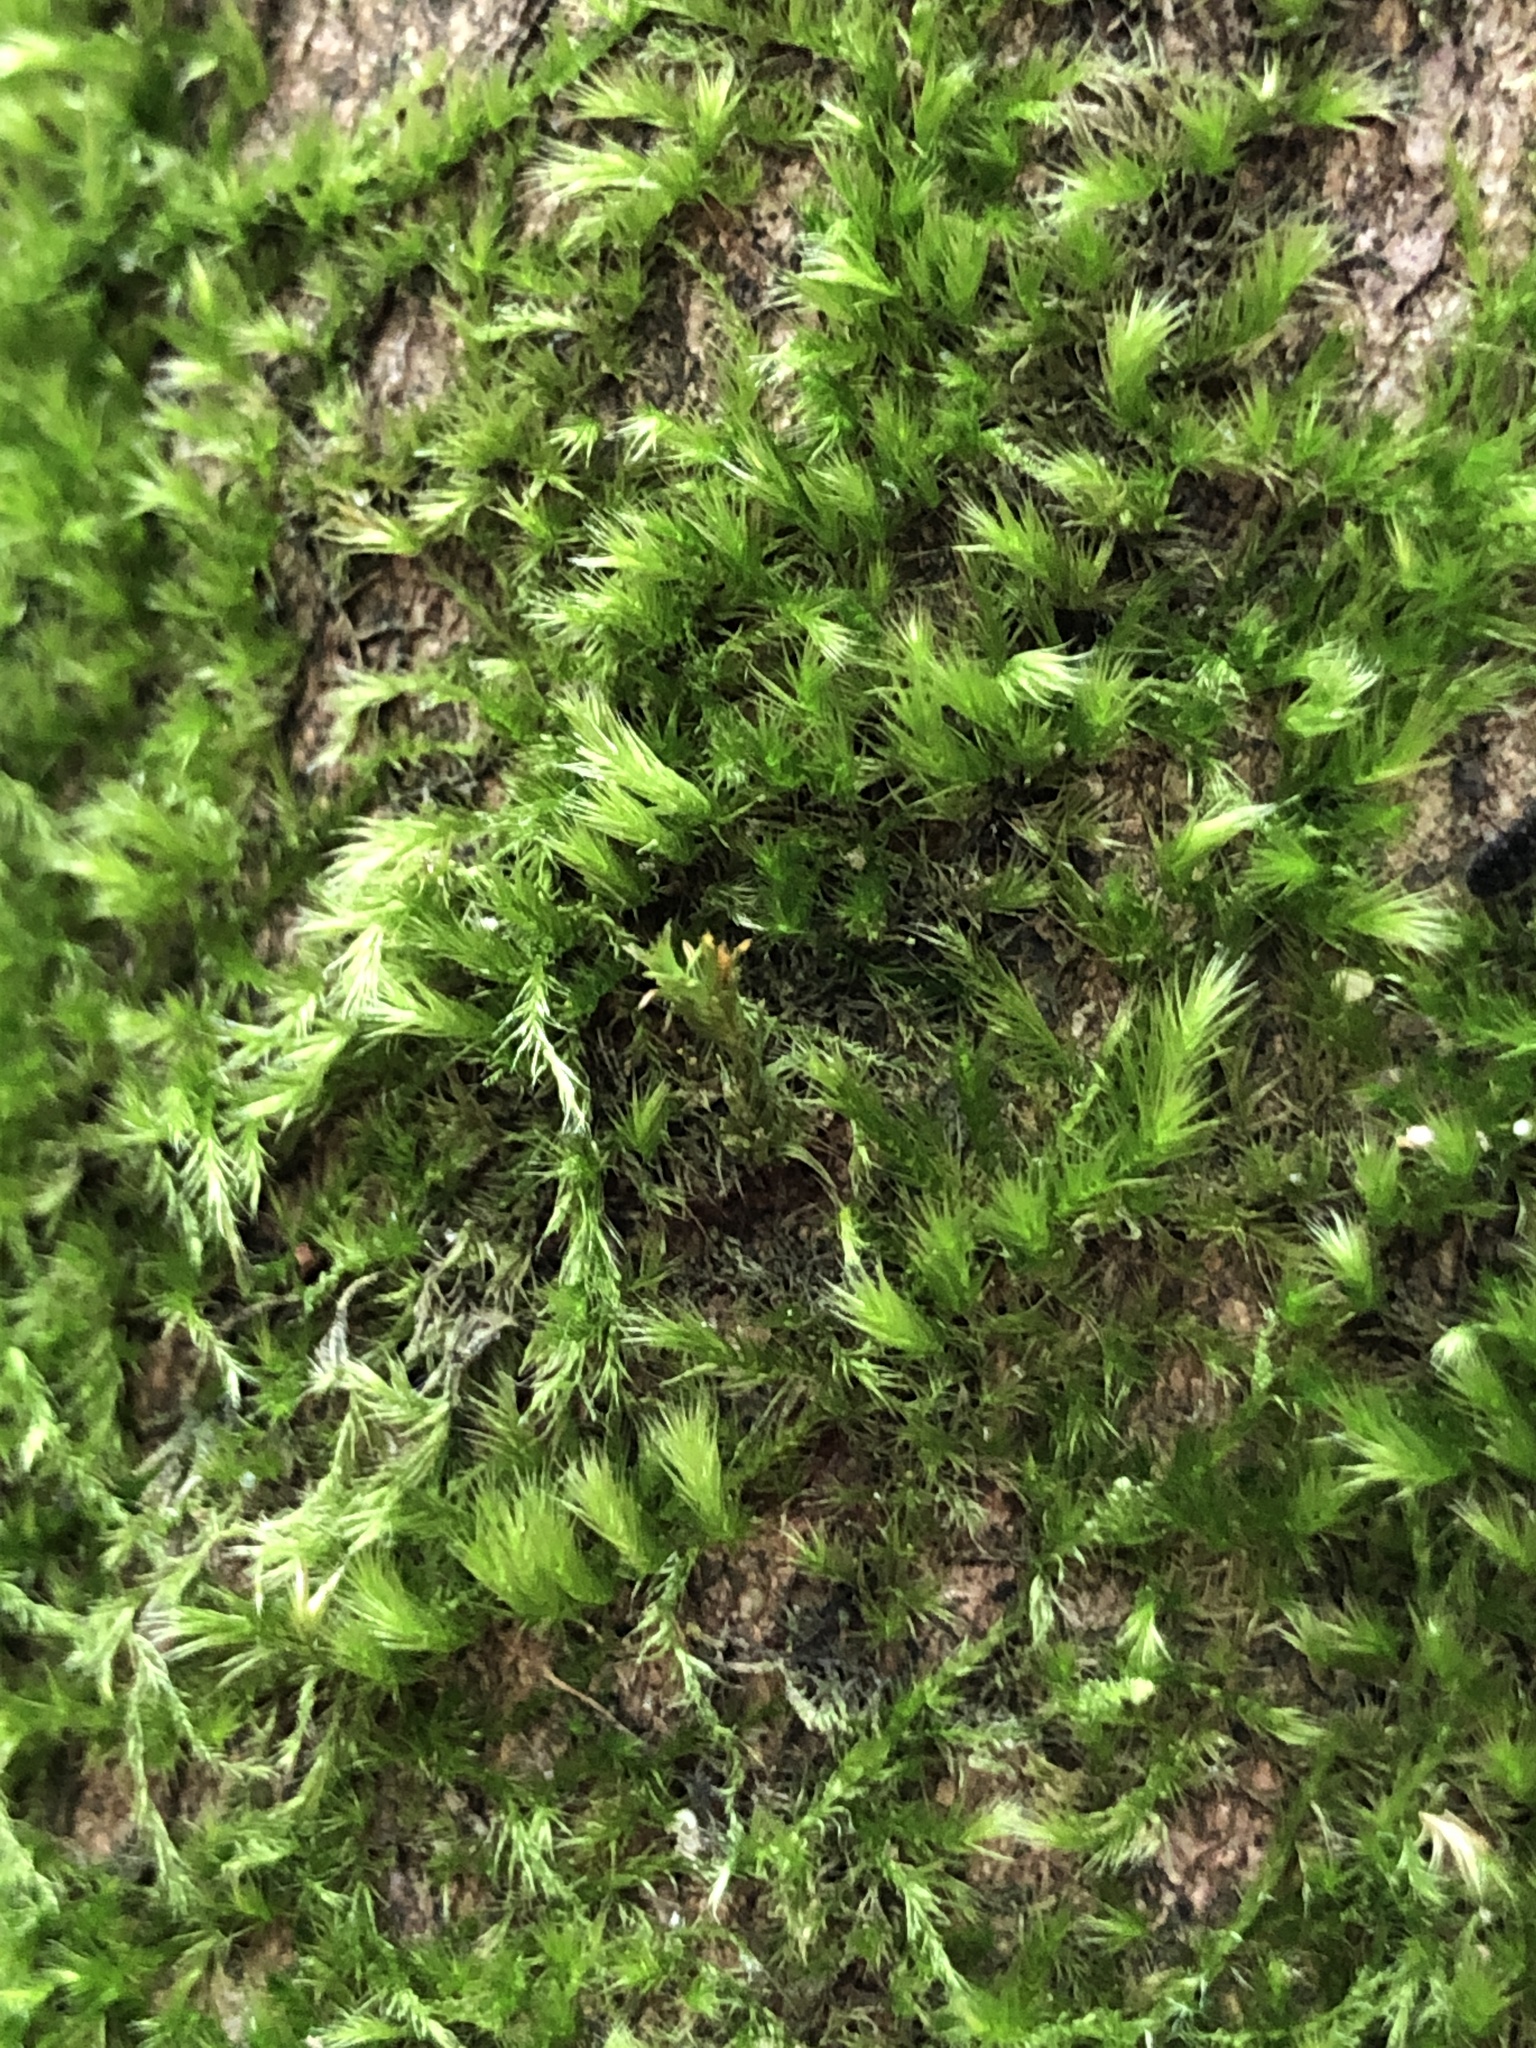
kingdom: Plantae
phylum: Bryophyta
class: Bryopsida
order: Hypnales
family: Brachytheciaceae
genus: Homalothecium
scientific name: Homalothecium sericeum
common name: Silky wall feather-moss
